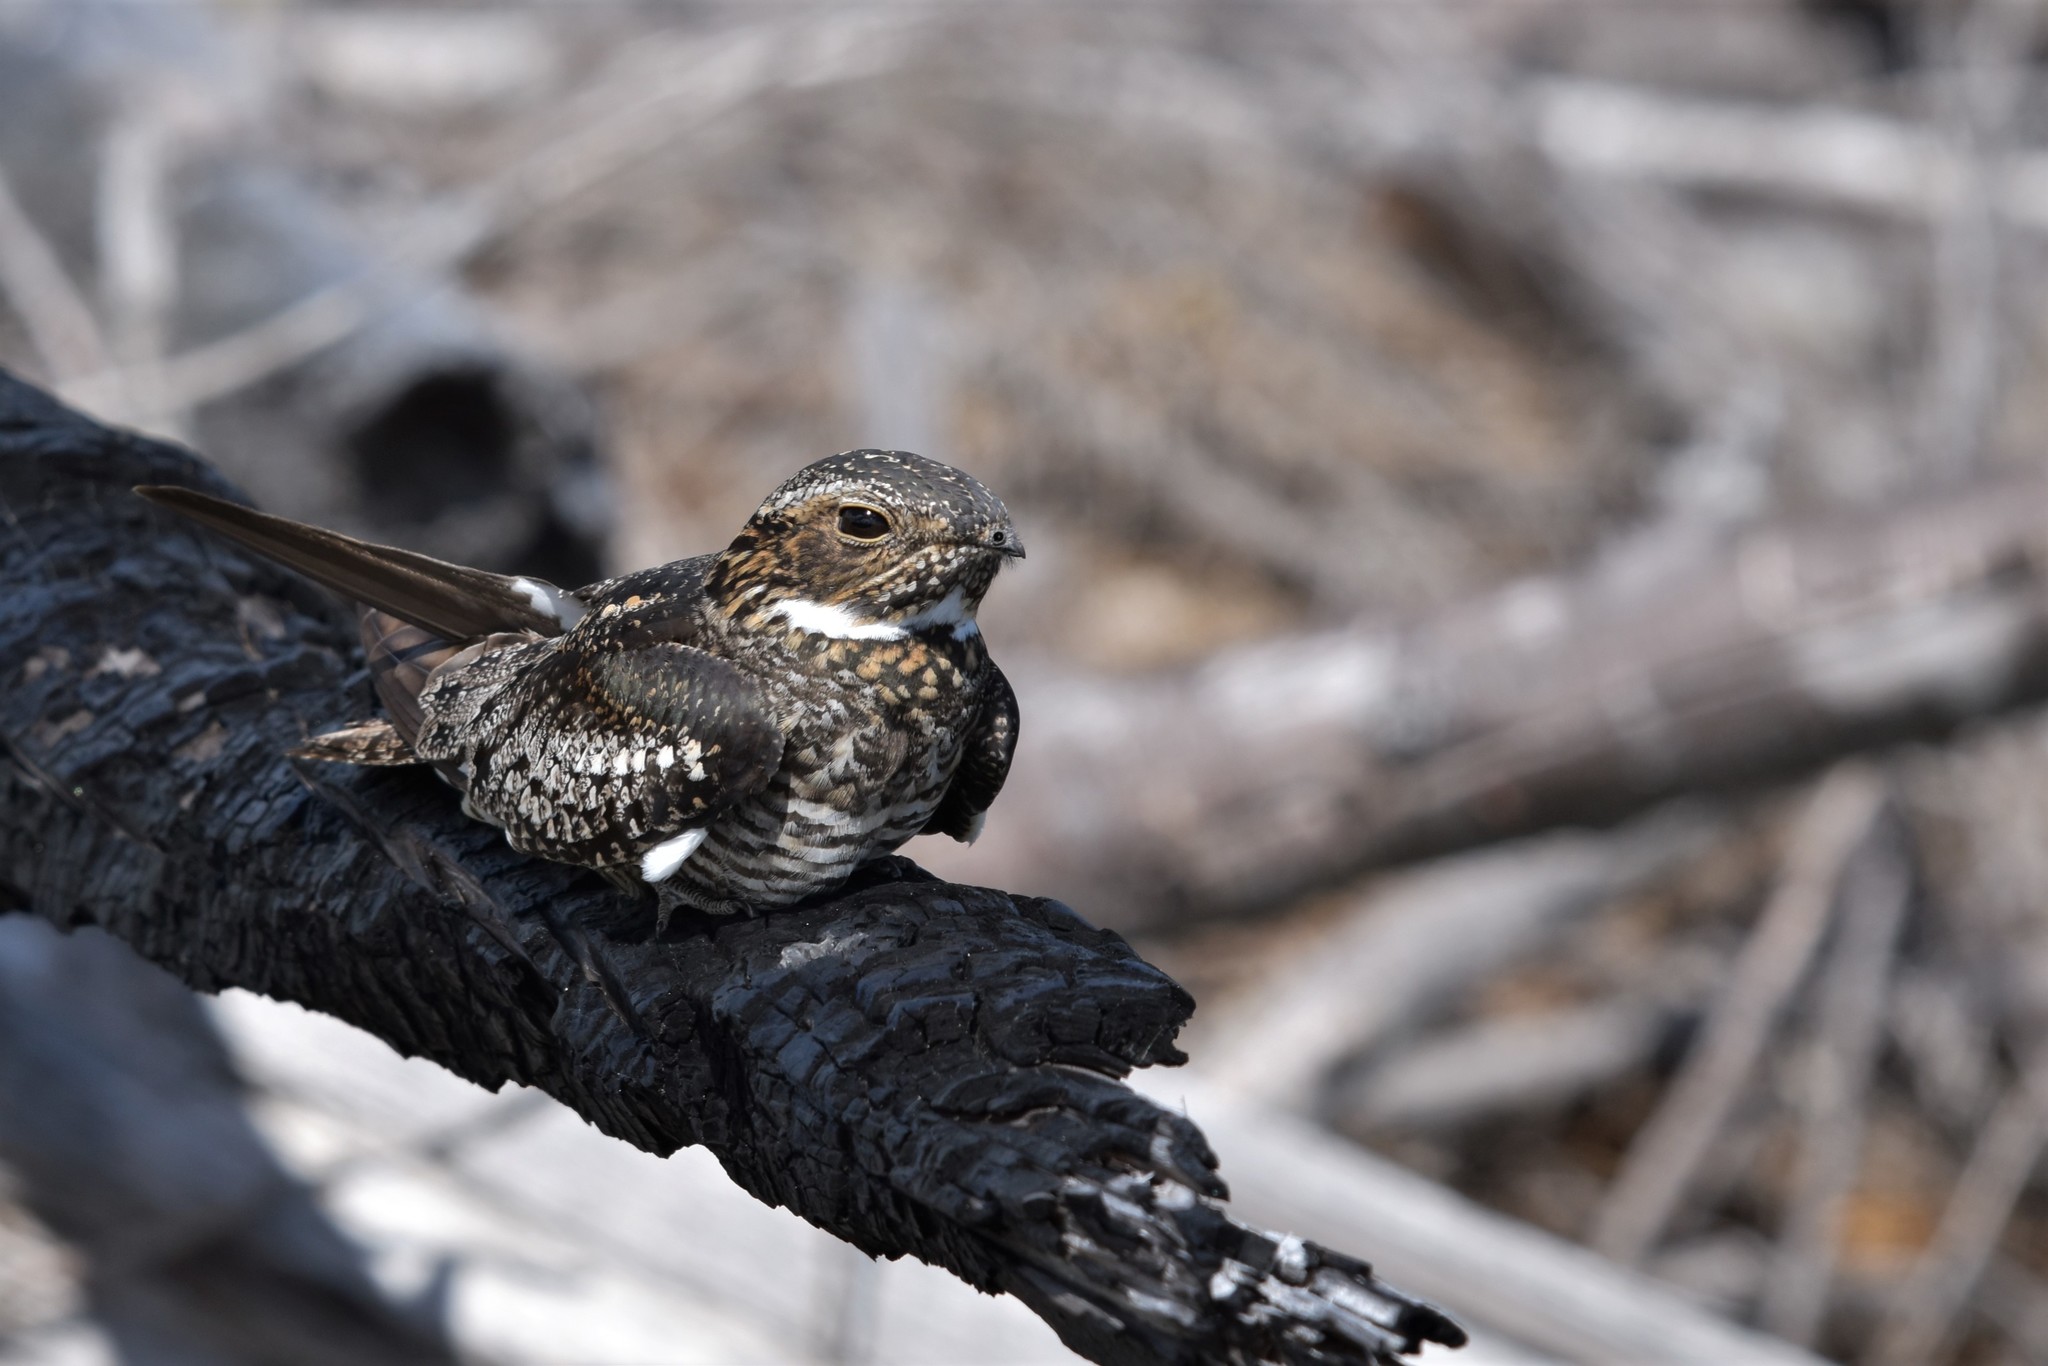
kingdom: Animalia
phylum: Chordata
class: Aves
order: Caprimulgiformes
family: Caprimulgidae
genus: Chordeiles
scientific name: Chordeiles minor
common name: Common nighthawk
